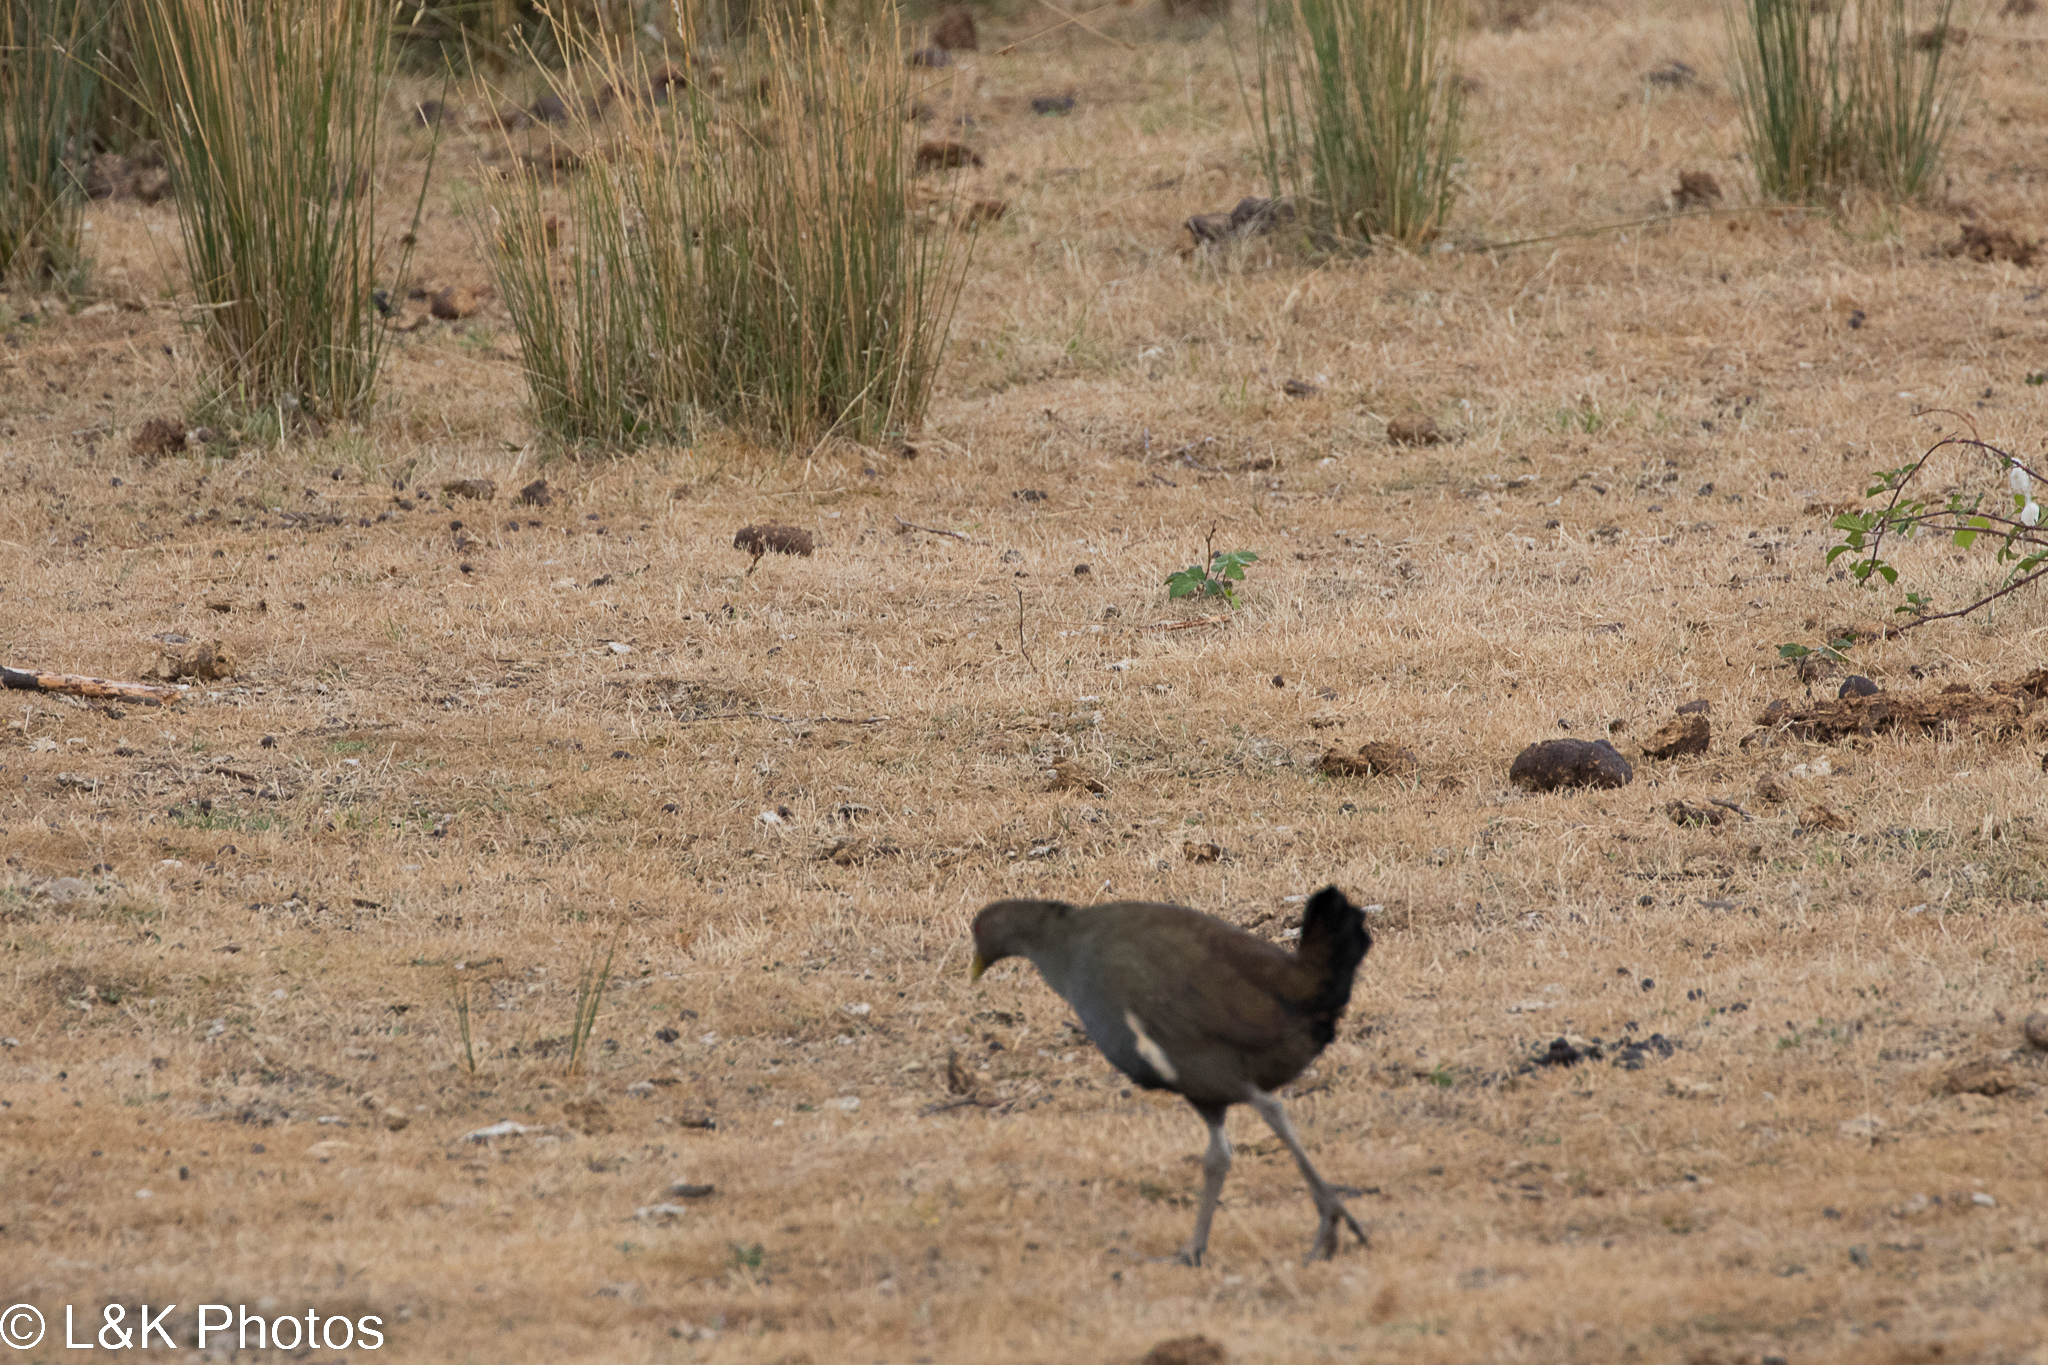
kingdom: Animalia
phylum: Chordata
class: Aves
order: Gruiformes
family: Rallidae
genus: Gallinula
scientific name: Gallinula mortierii
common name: Tasmanian nativehen
